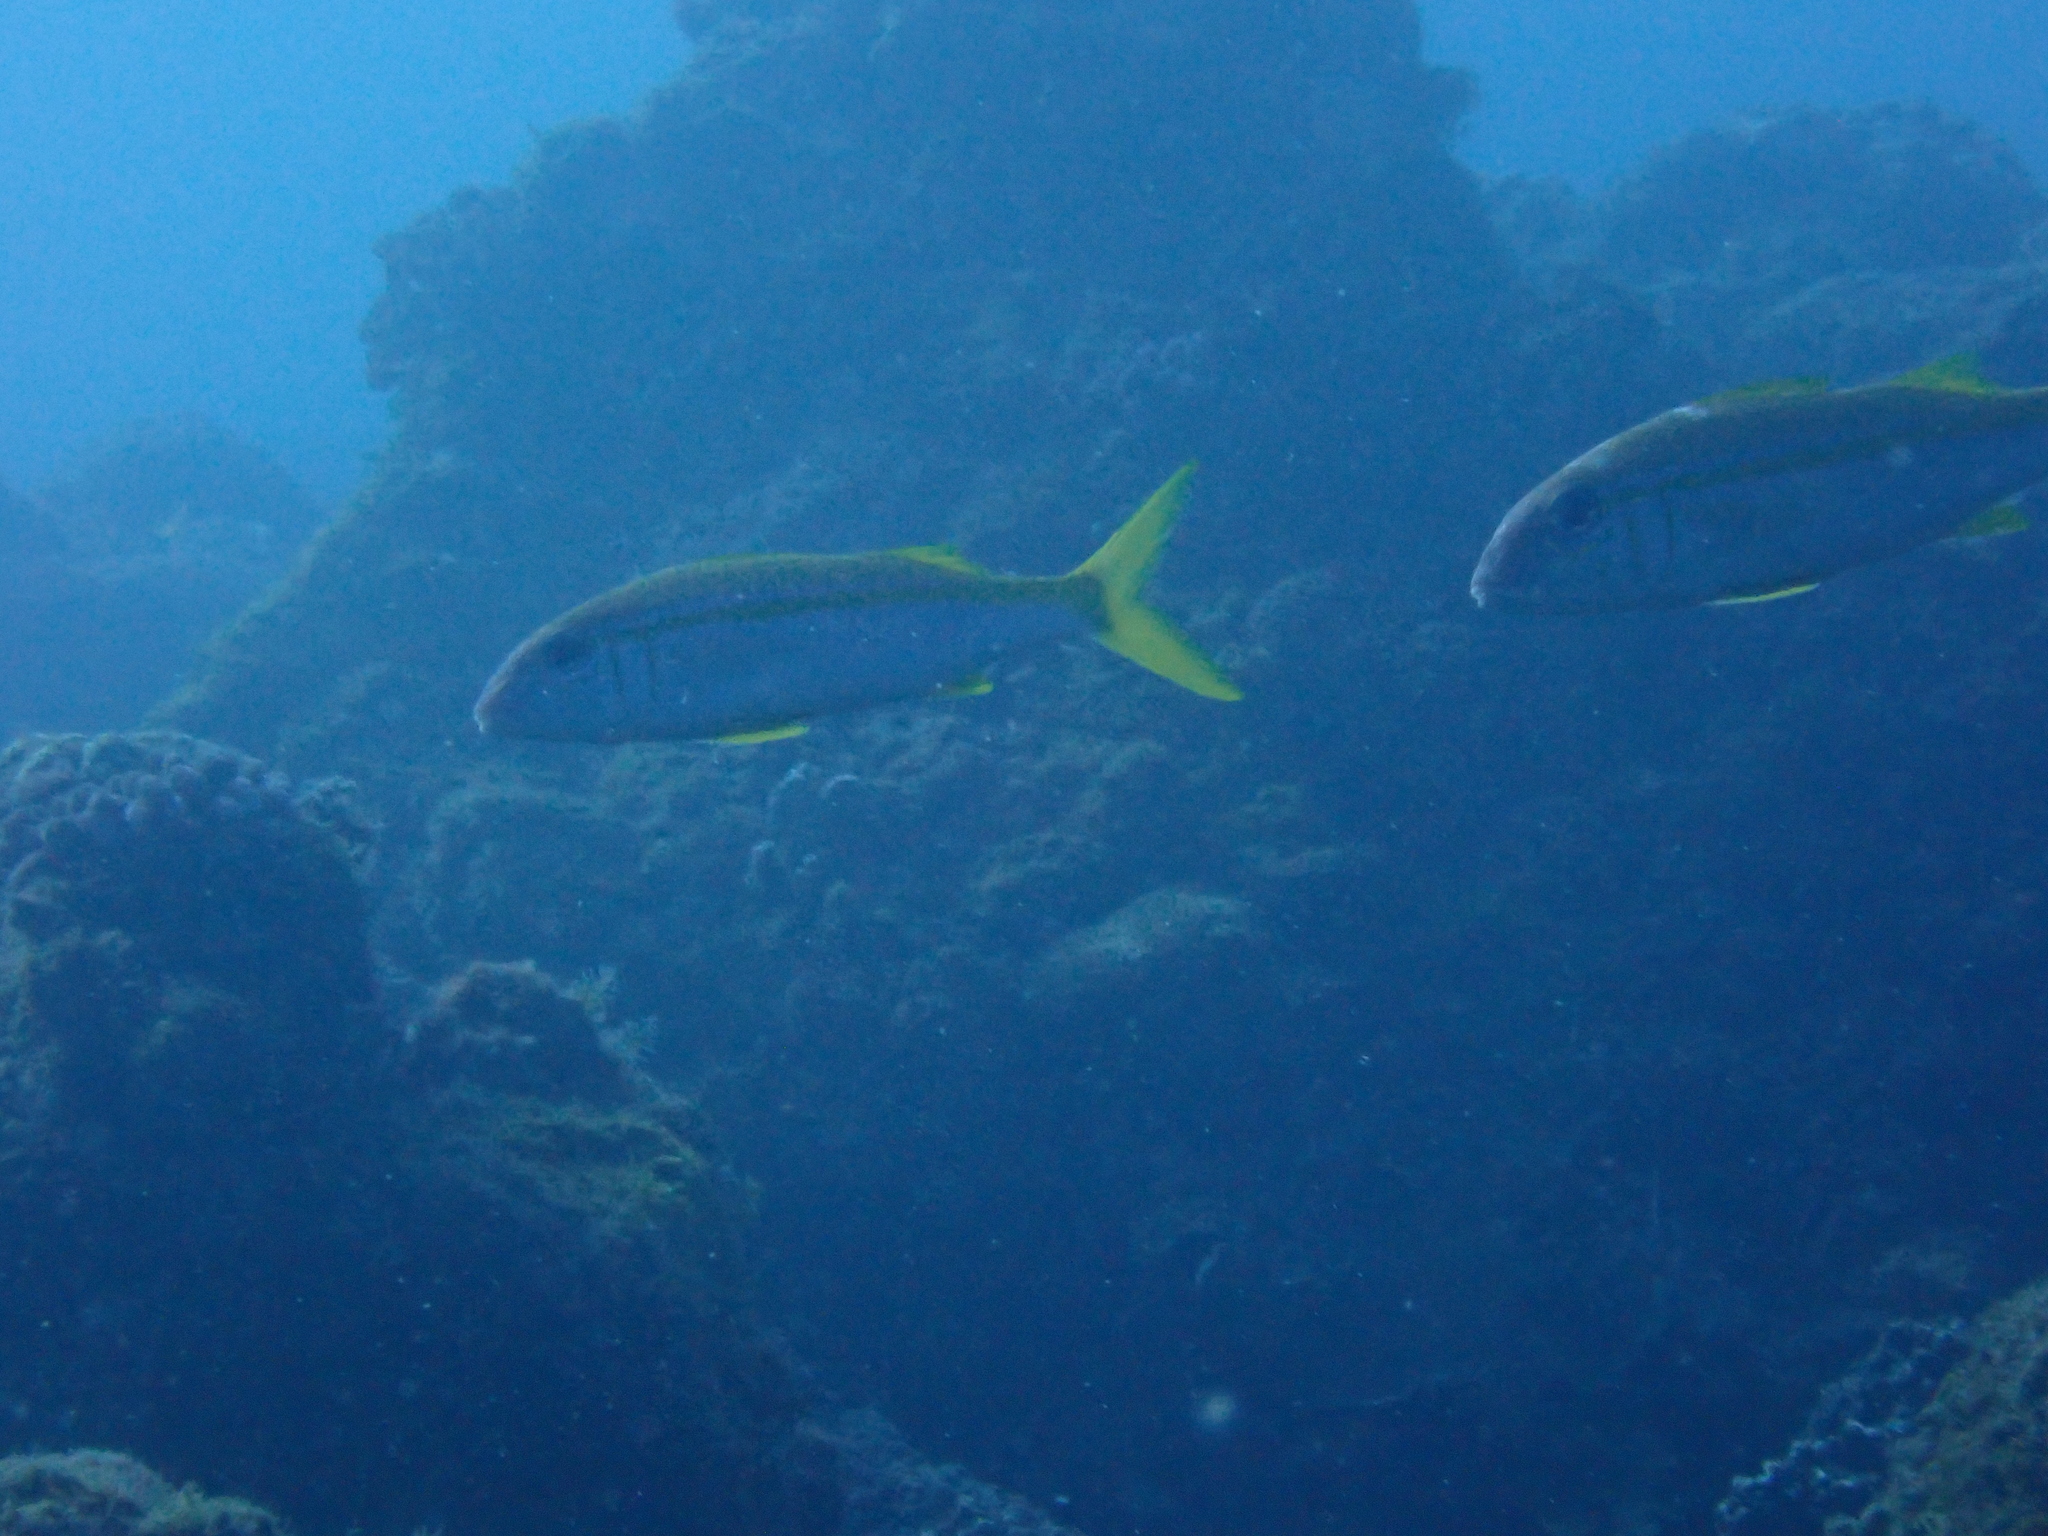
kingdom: Animalia
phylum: Chordata
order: Perciformes
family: Mullidae
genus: Mulloidichthys
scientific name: Mulloidichthys vanicolensis
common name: Yellowfin goatfish
